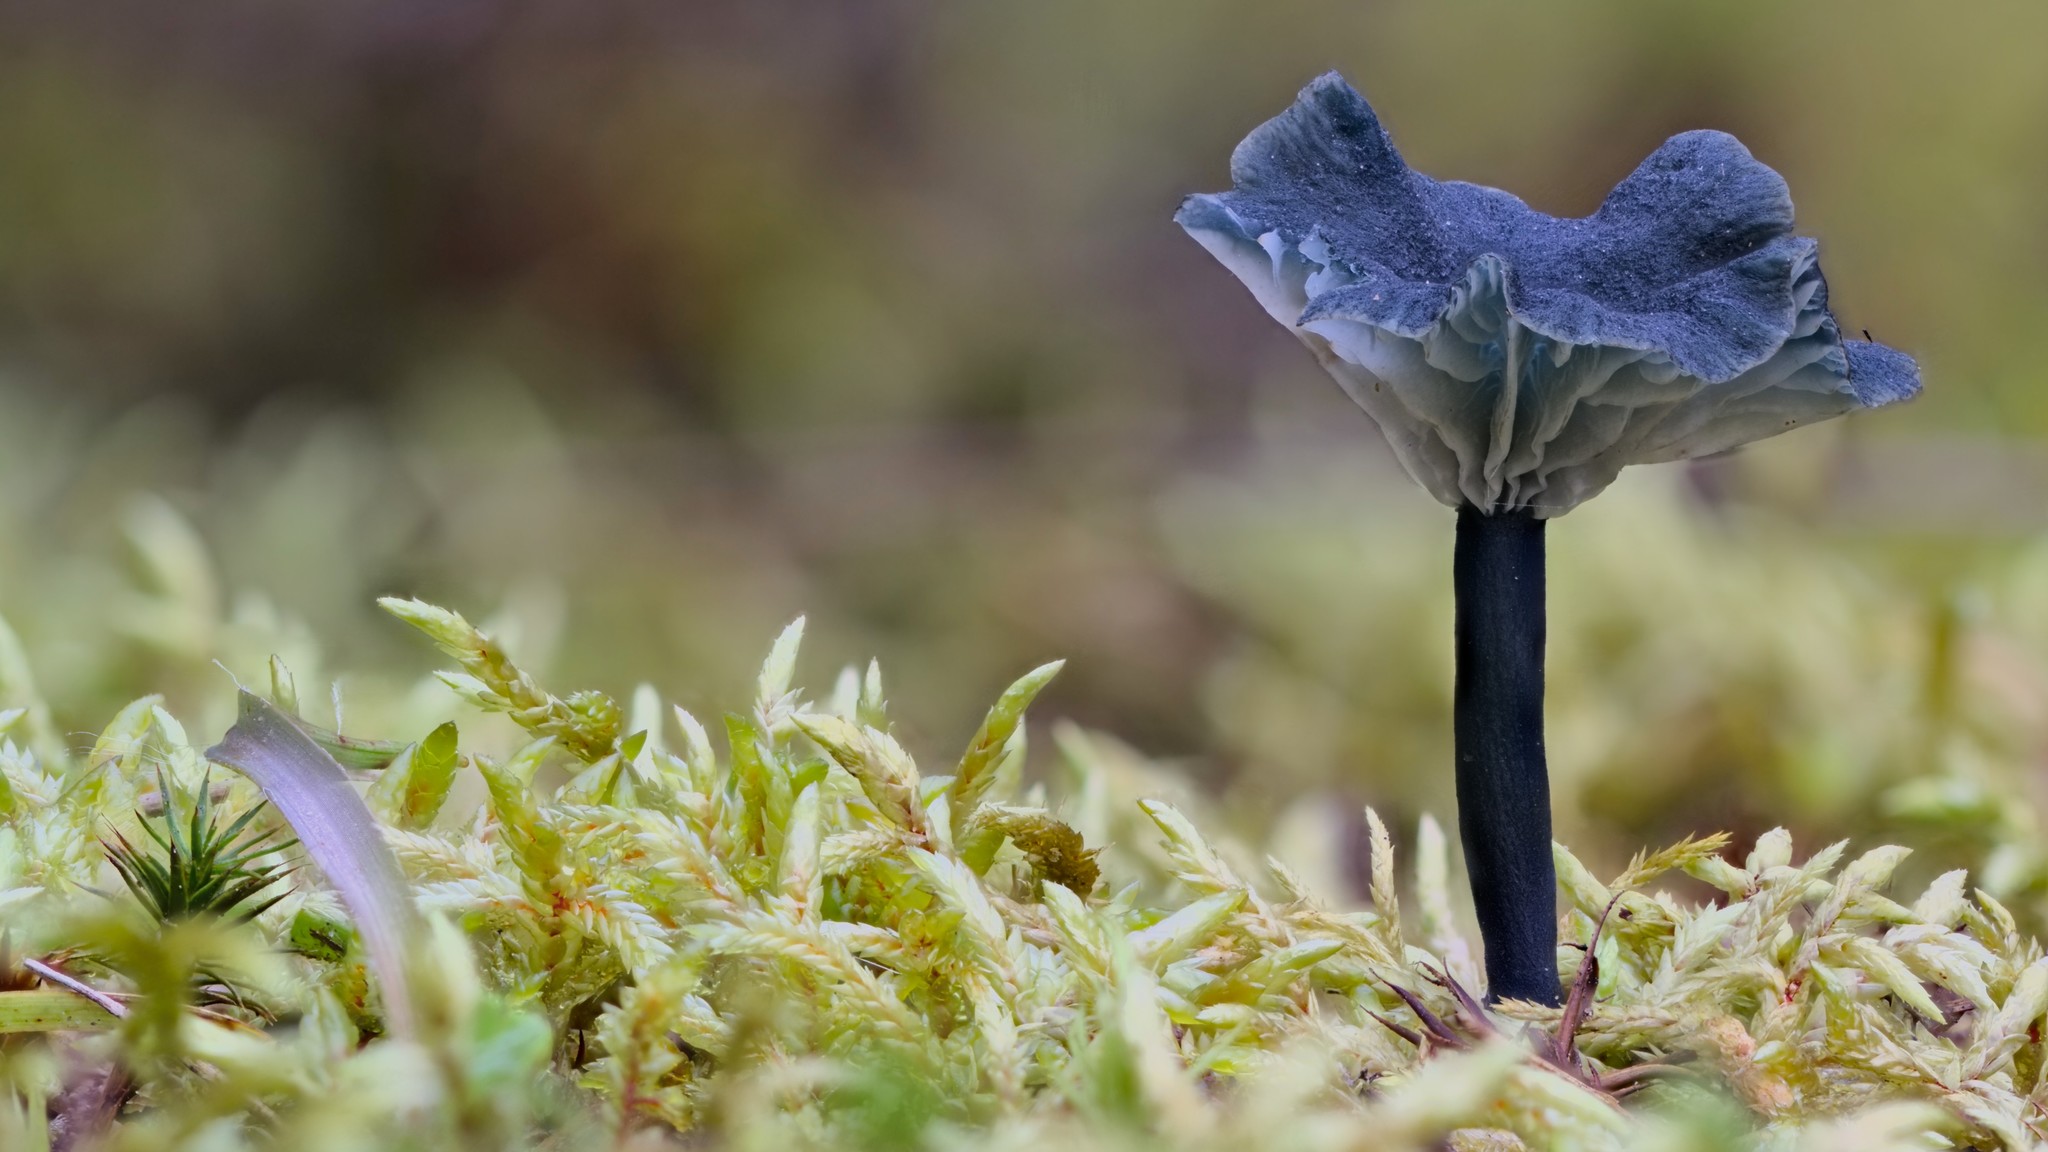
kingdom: Fungi
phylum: Basidiomycota
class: Agaricomycetes
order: Agaricales
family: Hygrophoraceae
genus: Arrhenia
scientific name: Arrhenia chlorocyanea
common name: Verdigris navel
